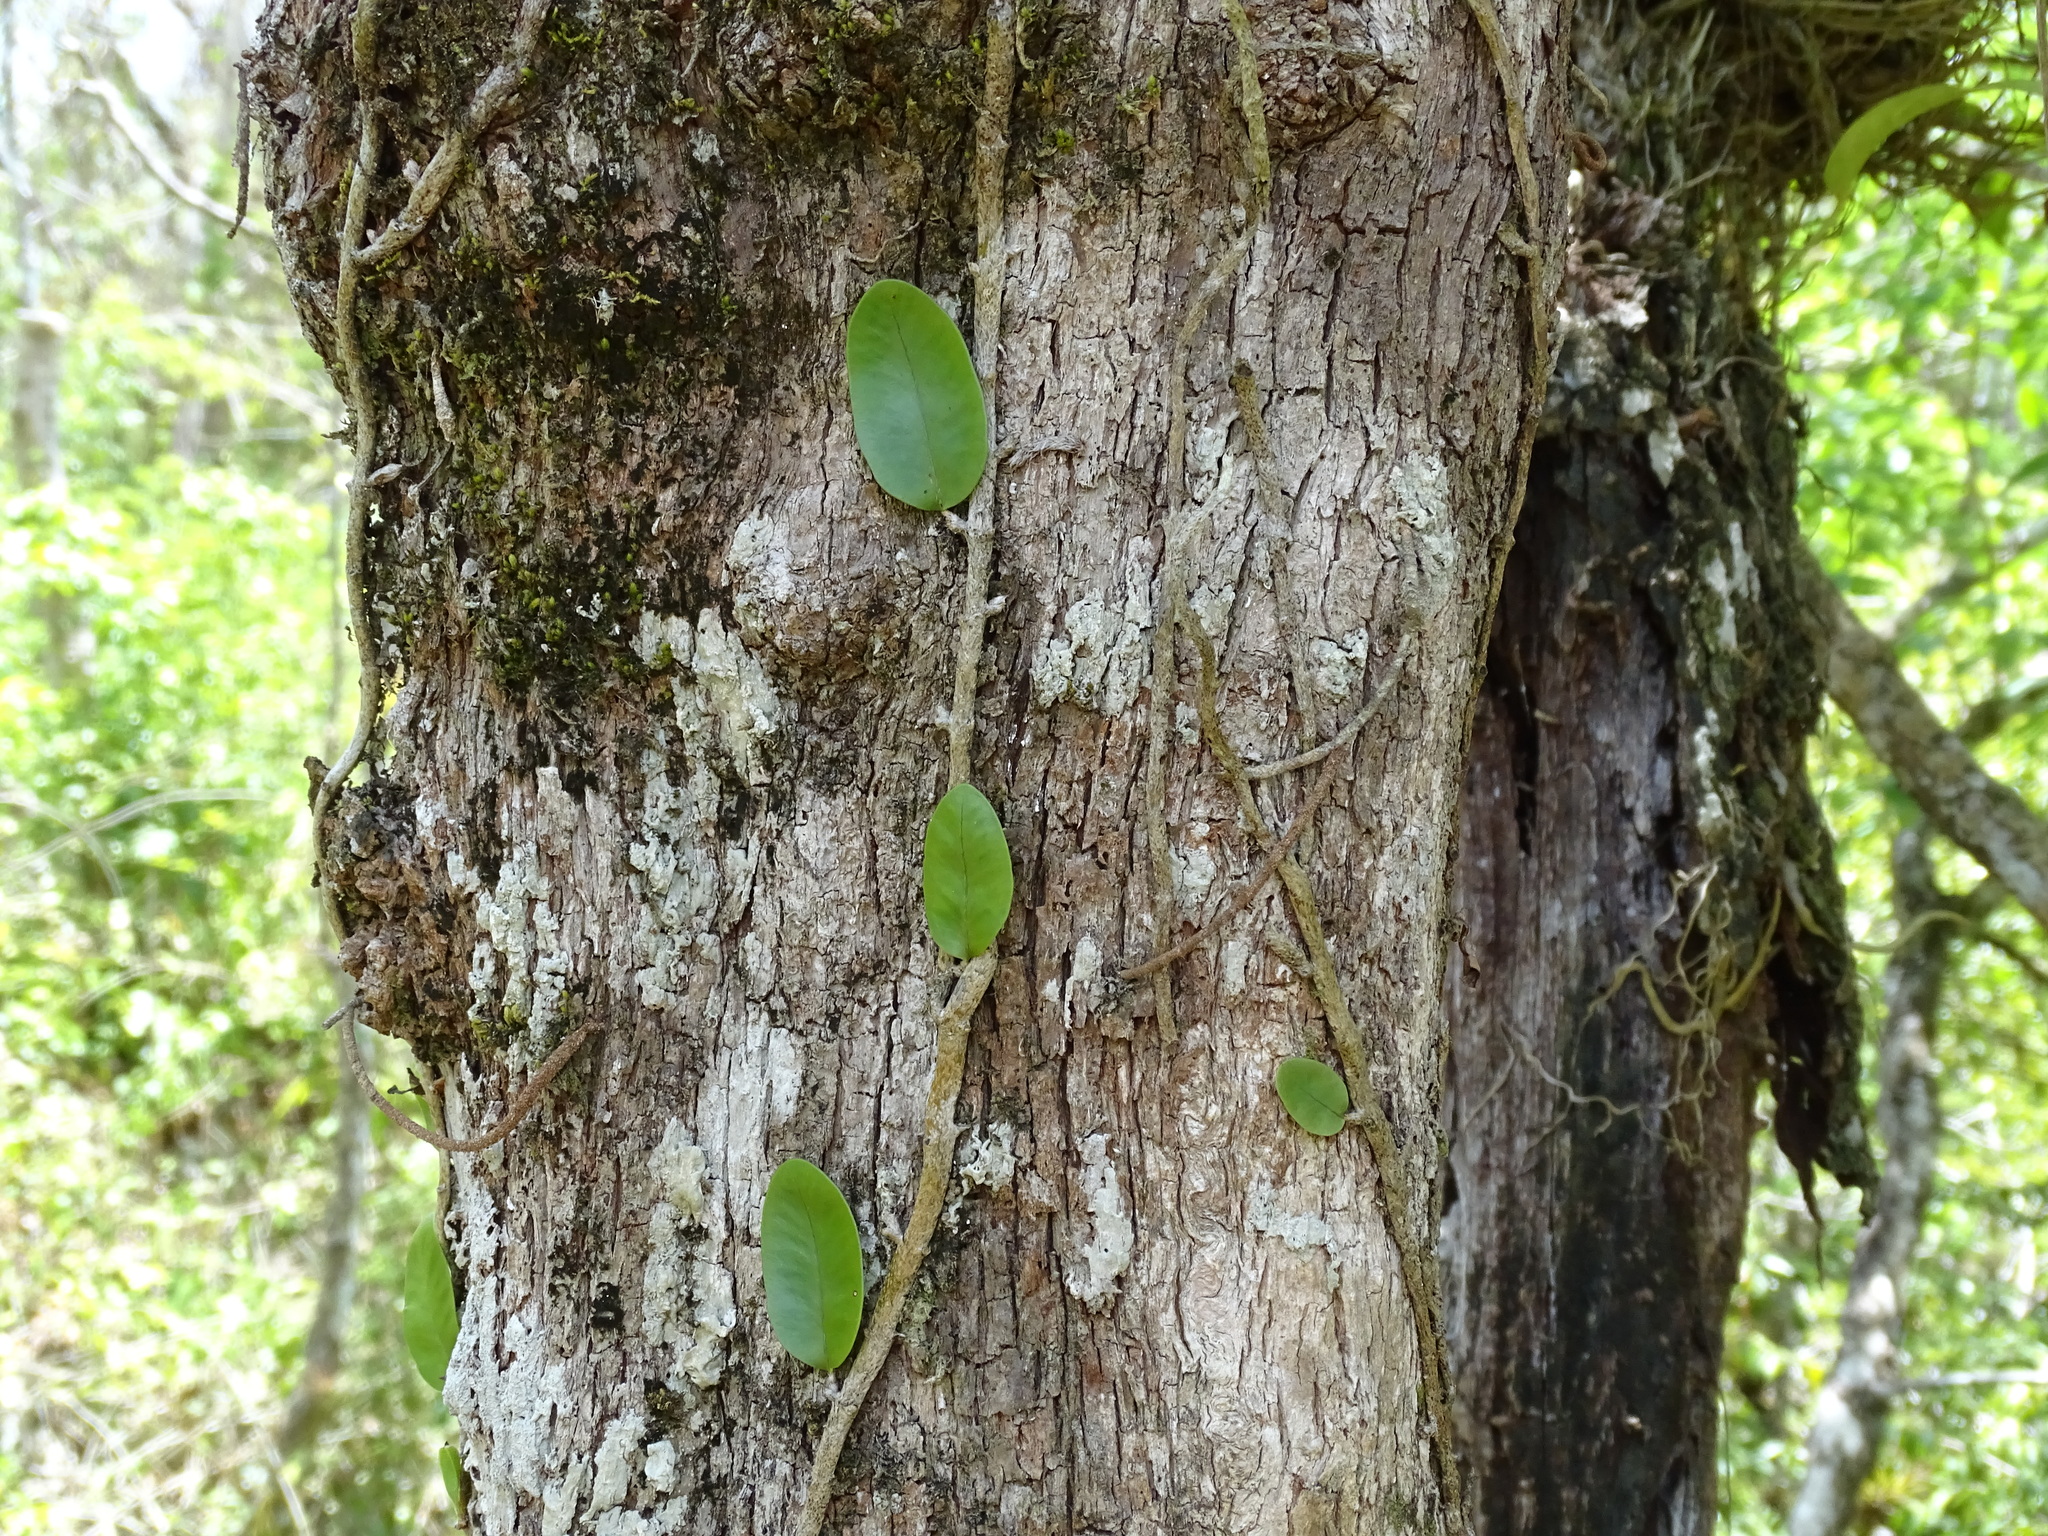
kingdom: Plantae
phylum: Tracheophyta
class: Polypodiopsida
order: Polypodiales
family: Polypodiaceae
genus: Microgramma
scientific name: Microgramma nitida
